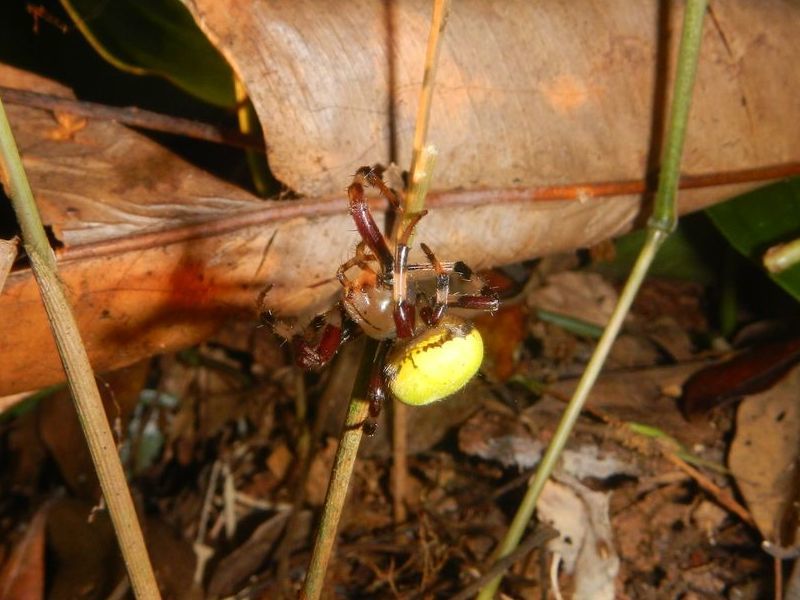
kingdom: Animalia
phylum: Arthropoda
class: Arachnida
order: Araneae
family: Araneidae
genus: Dubiepeira
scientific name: Dubiepeira dubitata
